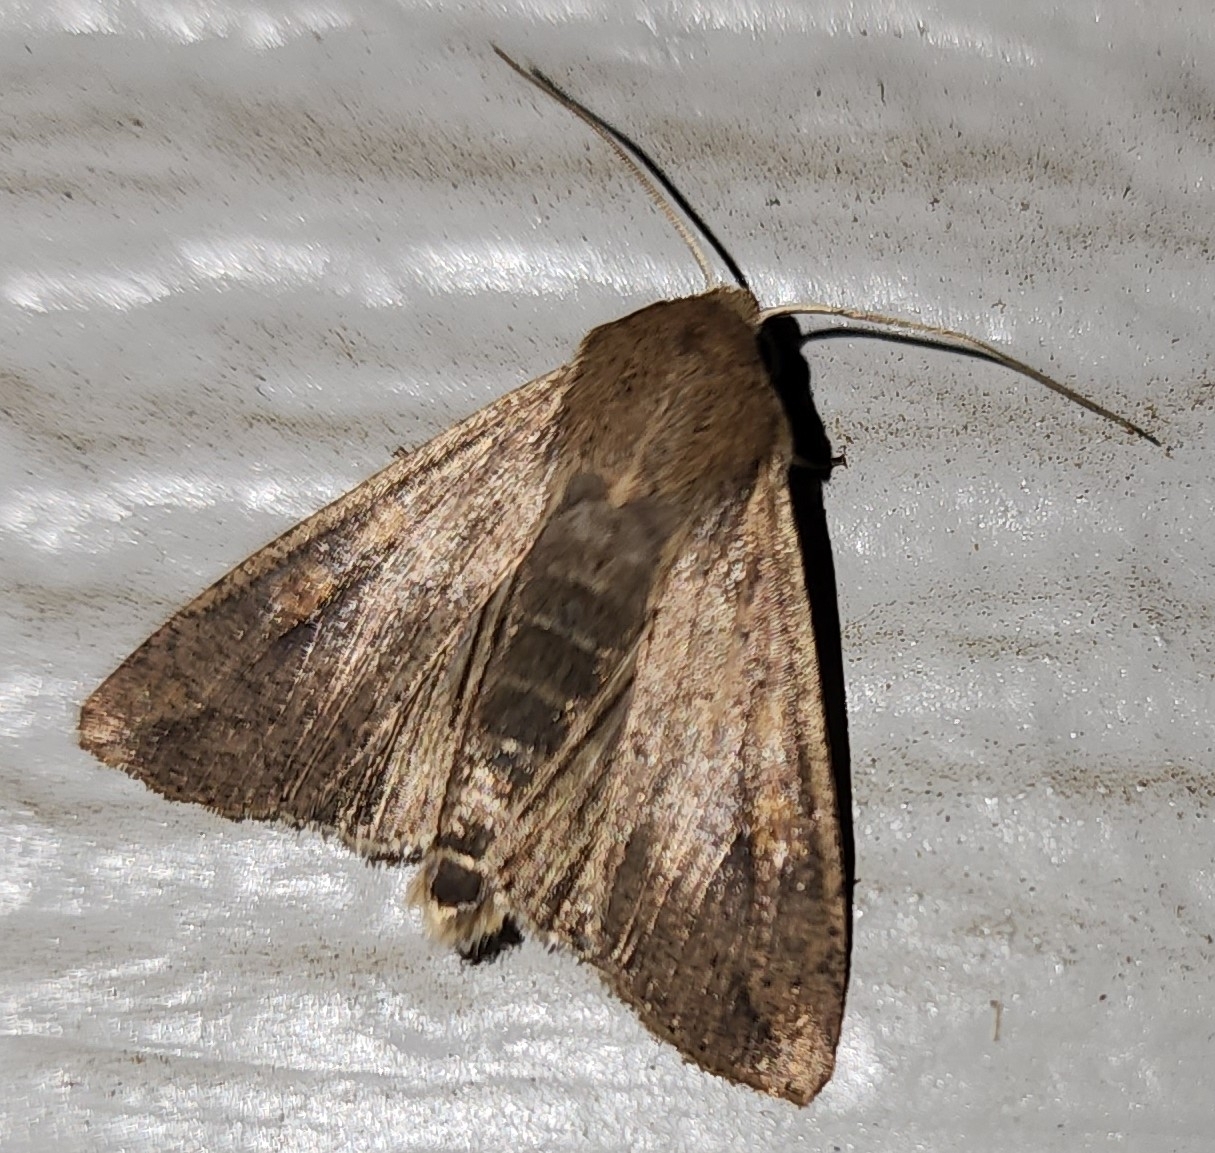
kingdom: Animalia
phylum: Arthropoda
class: Insecta
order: Lepidoptera
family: Noctuidae
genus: Mythimna
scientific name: Mythimna unipuncta
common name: White-speck
